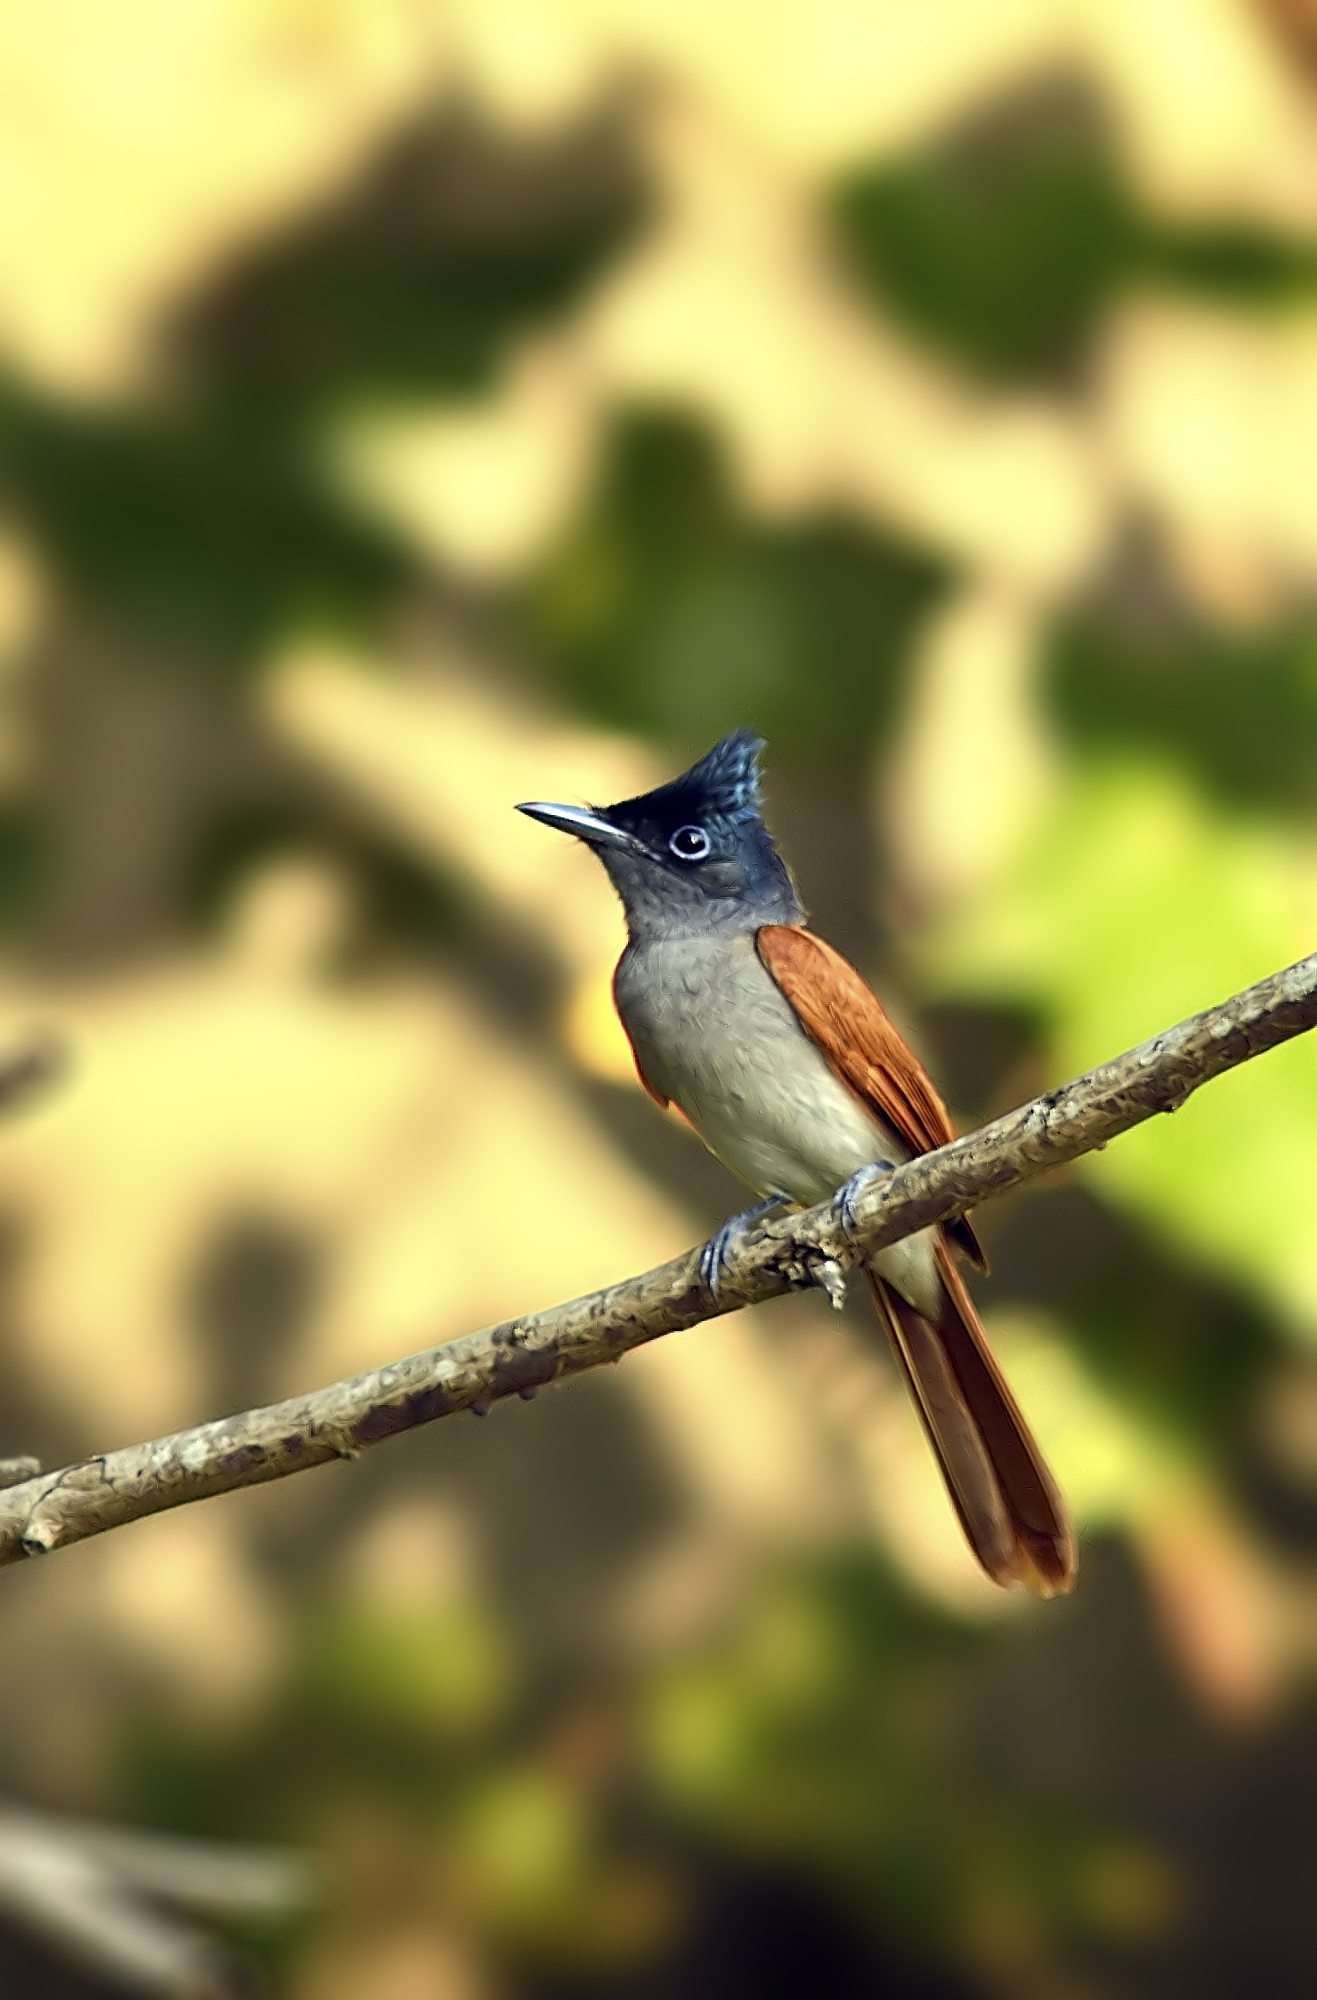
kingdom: Animalia
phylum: Chordata
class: Aves
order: Passeriformes
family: Monarchidae
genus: Terpsiphone
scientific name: Terpsiphone paradisi
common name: Indian paradise flycatcher
